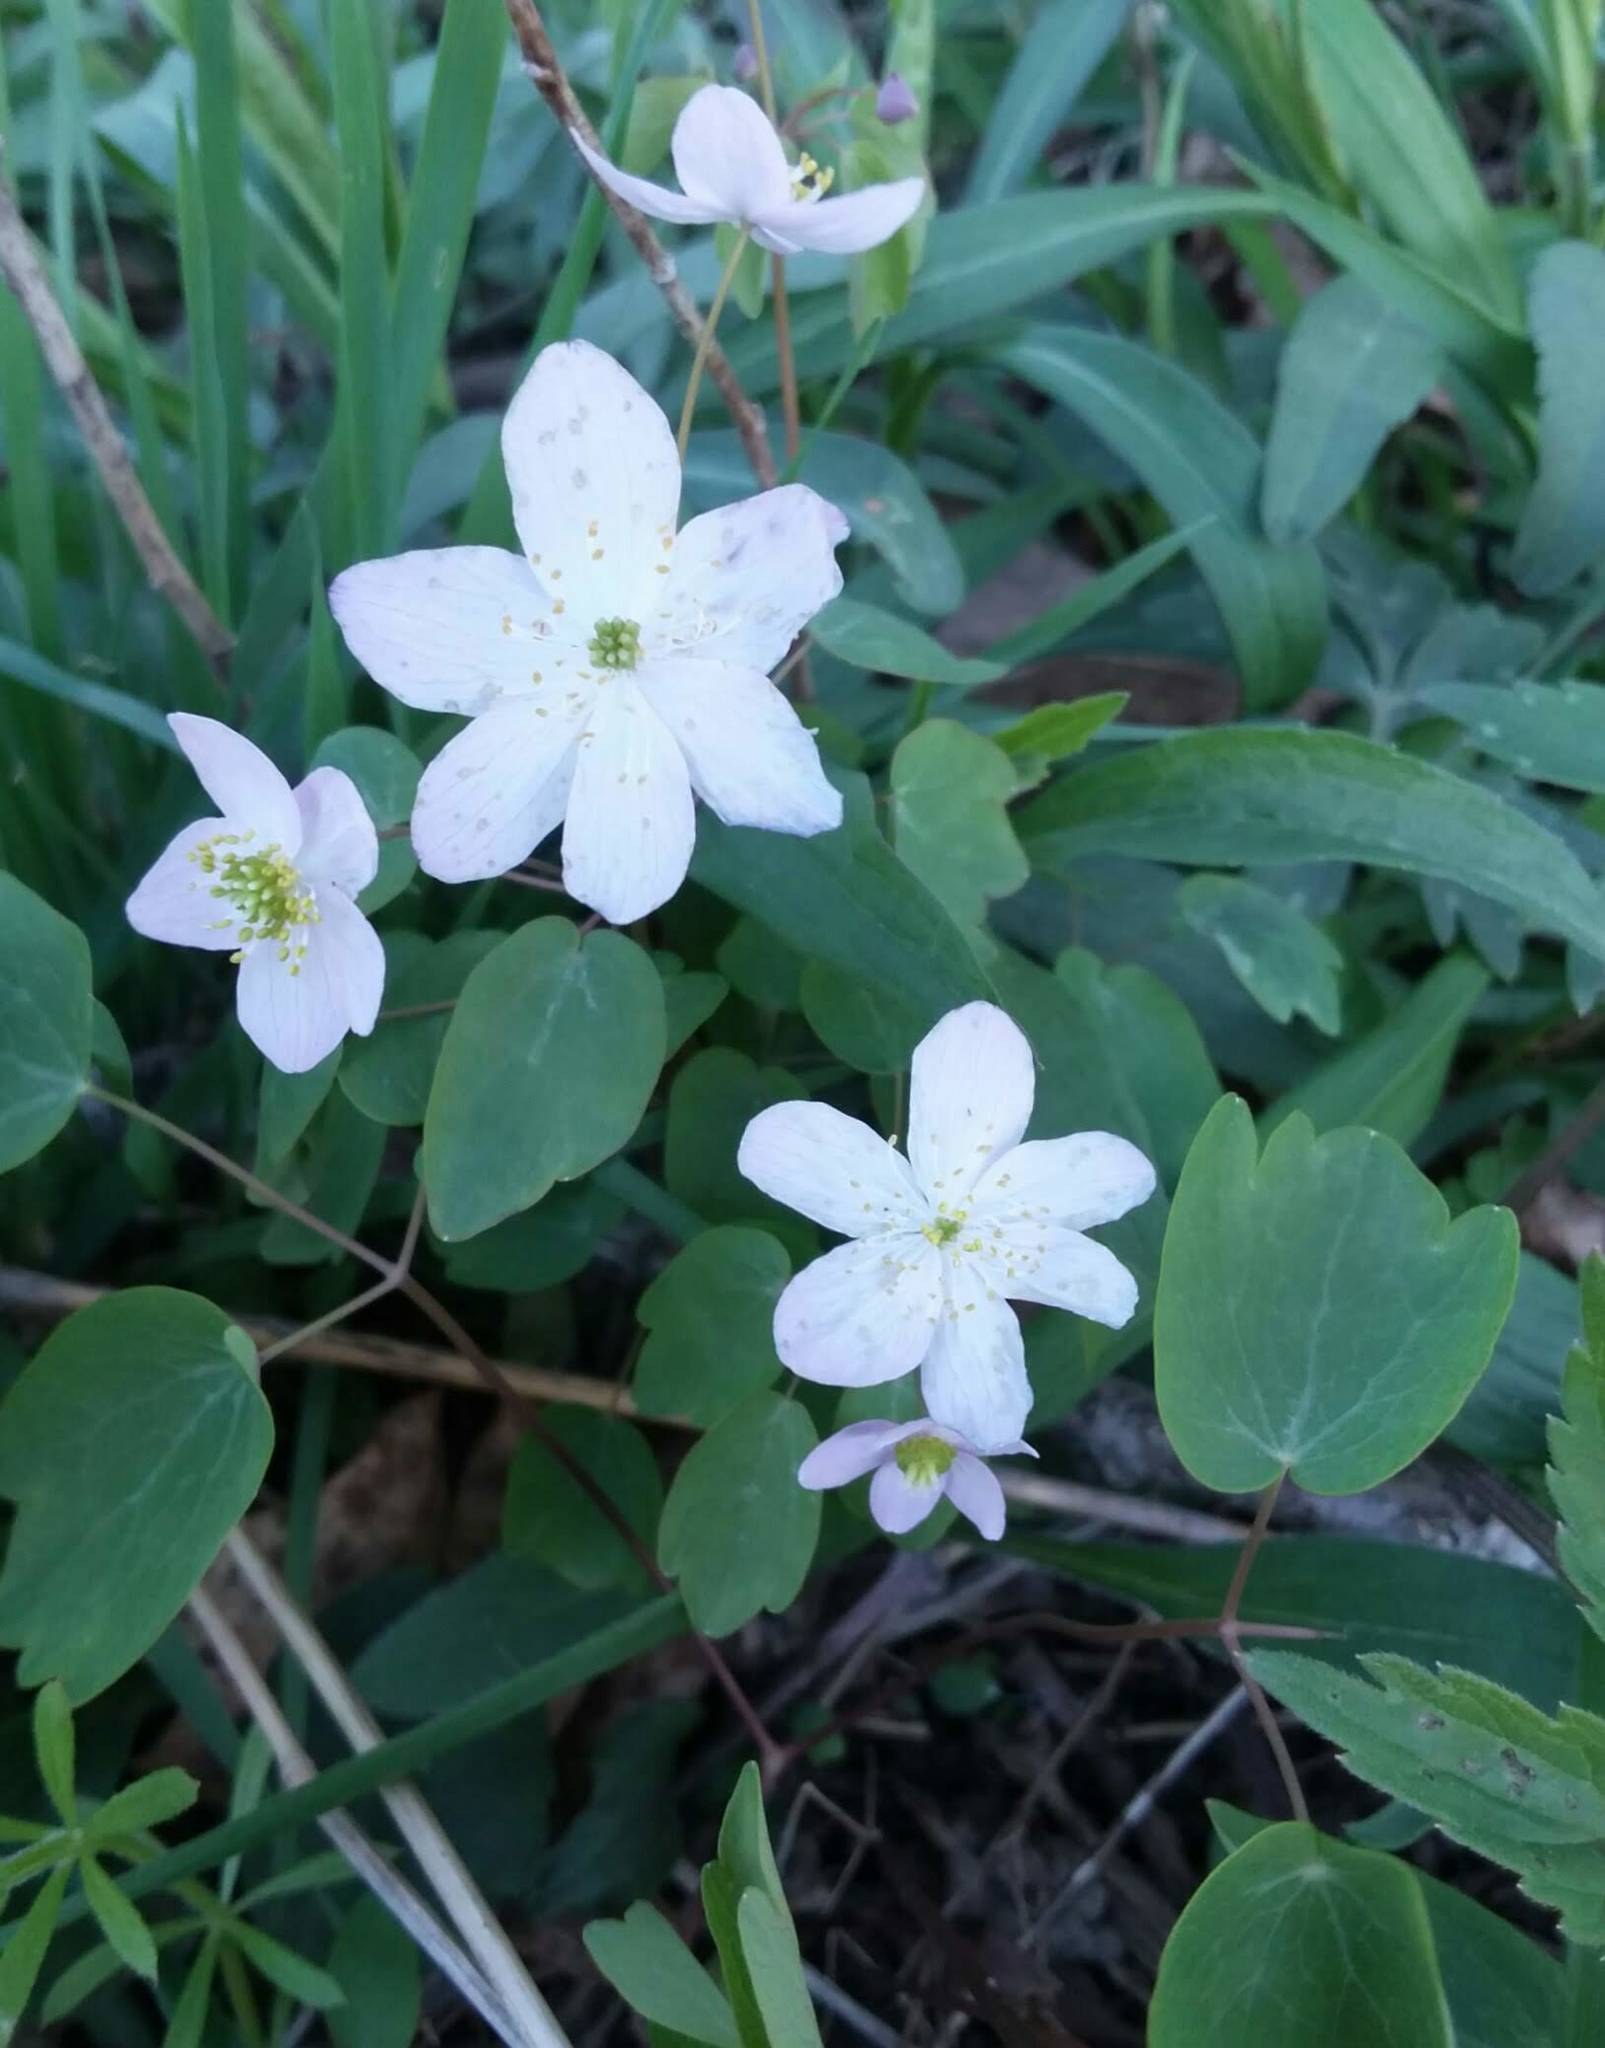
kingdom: Plantae
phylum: Tracheophyta
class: Magnoliopsida
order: Ranunculales
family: Ranunculaceae
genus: Thalictrum
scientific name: Thalictrum thalictroides
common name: Rue-anemone
